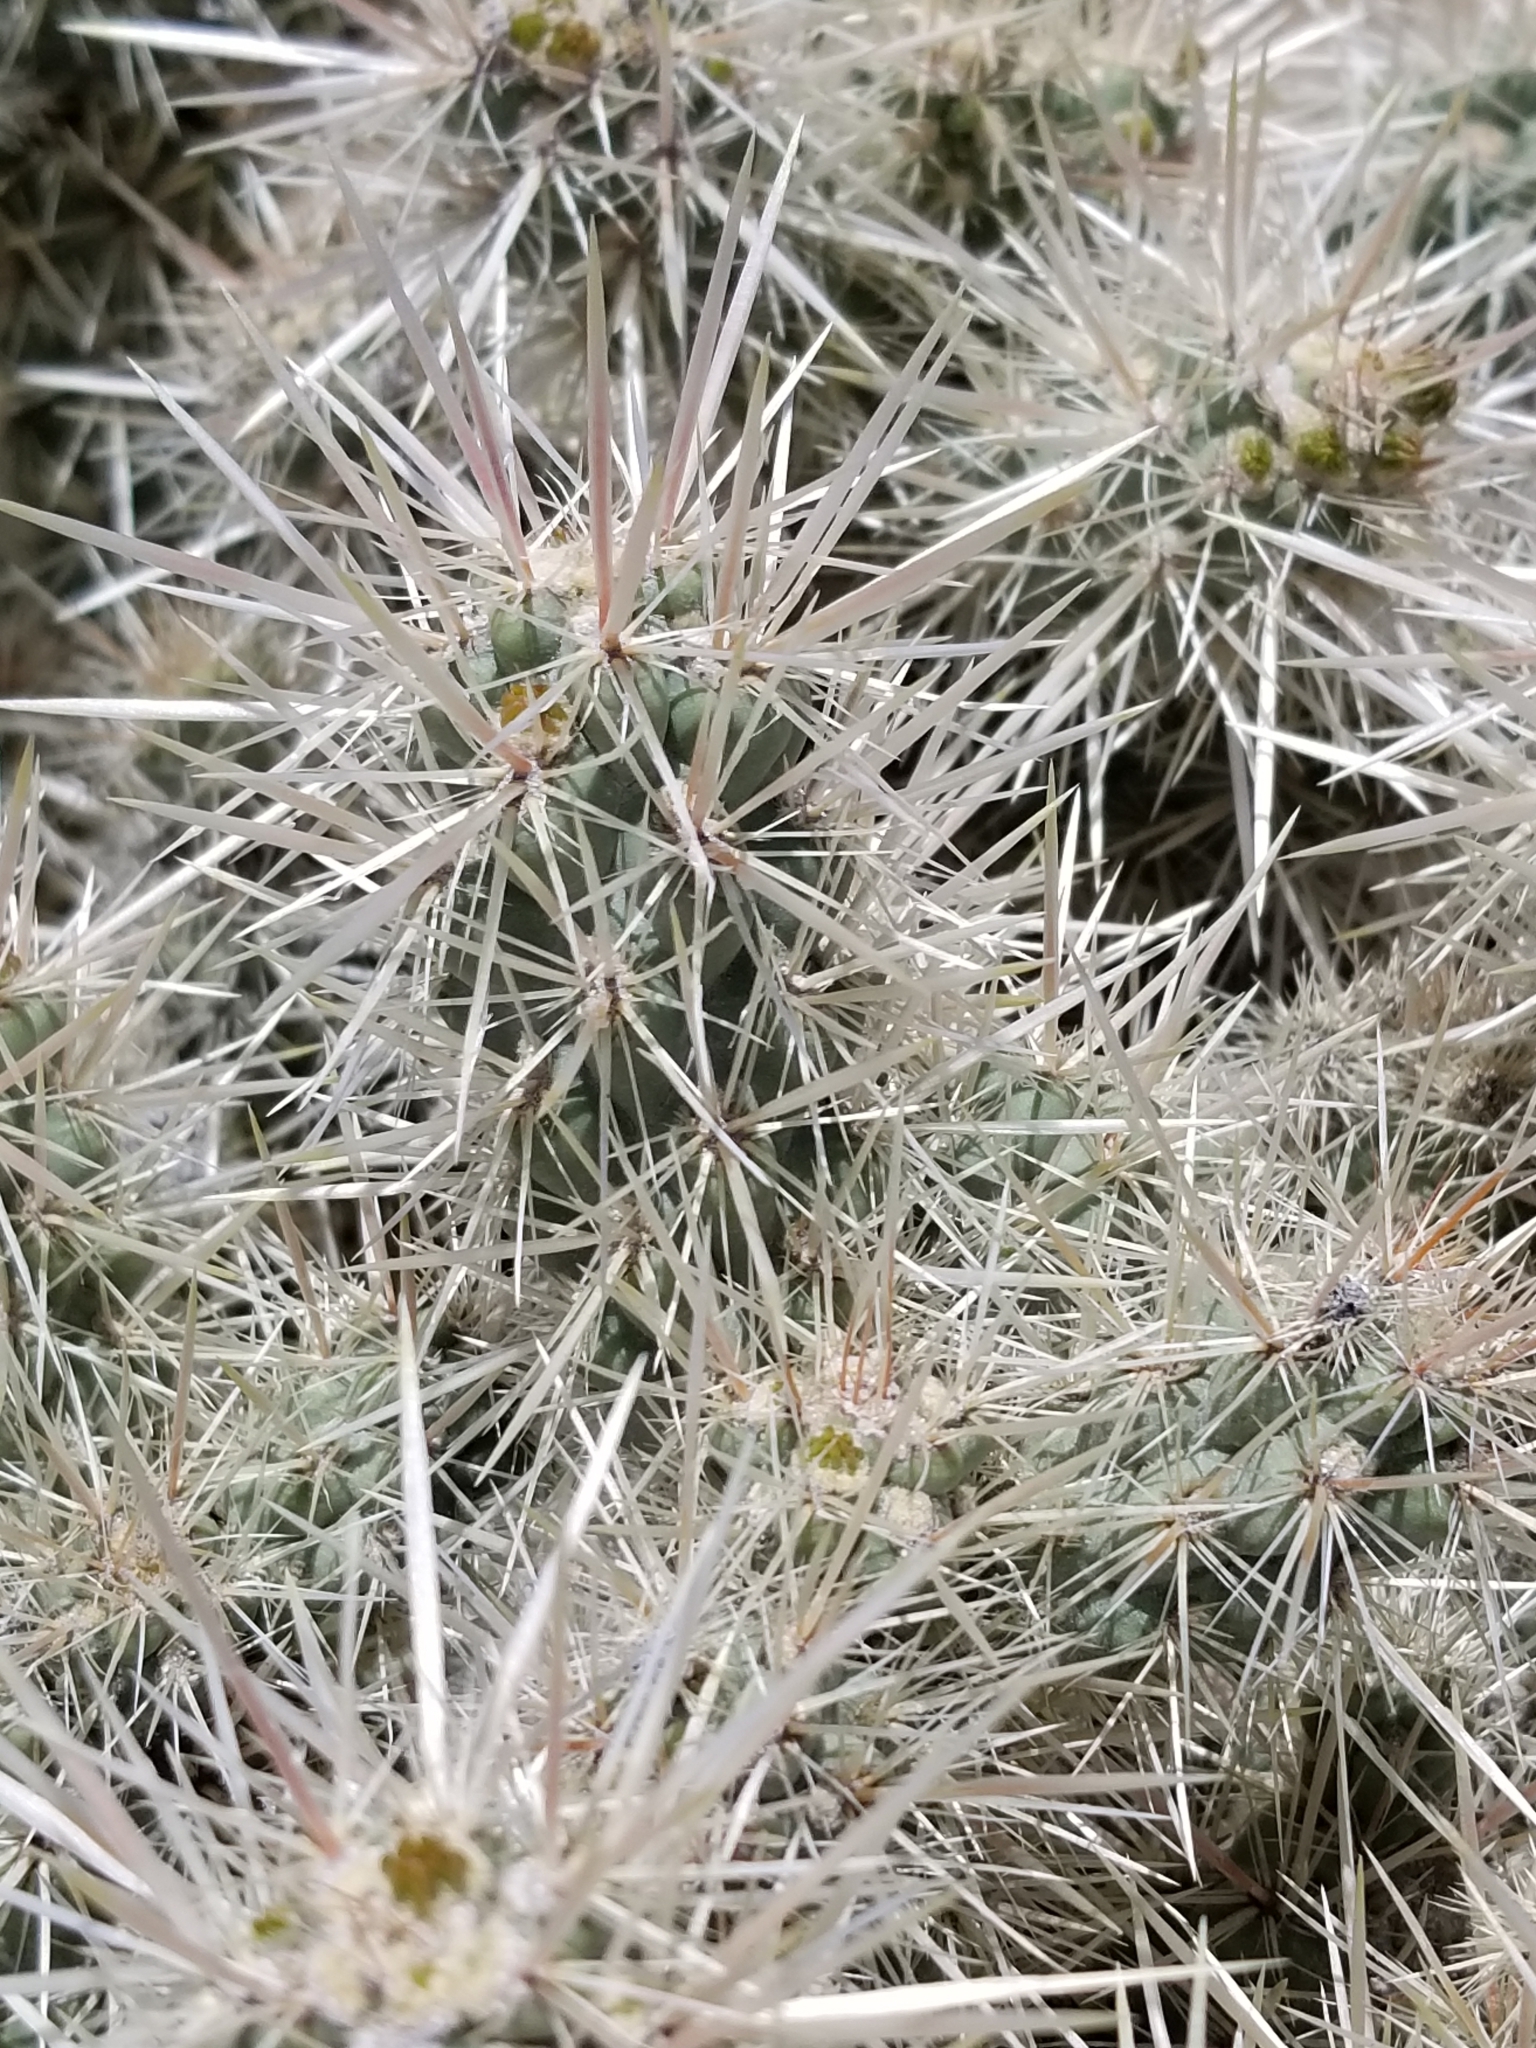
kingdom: Plantae
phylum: Tracheophyta
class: Magnoliopsida
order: Caryophyllales
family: Cactaceae
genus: Cylindropuntia
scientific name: Cylindropuntia echinocarpa
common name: Ground cholla
